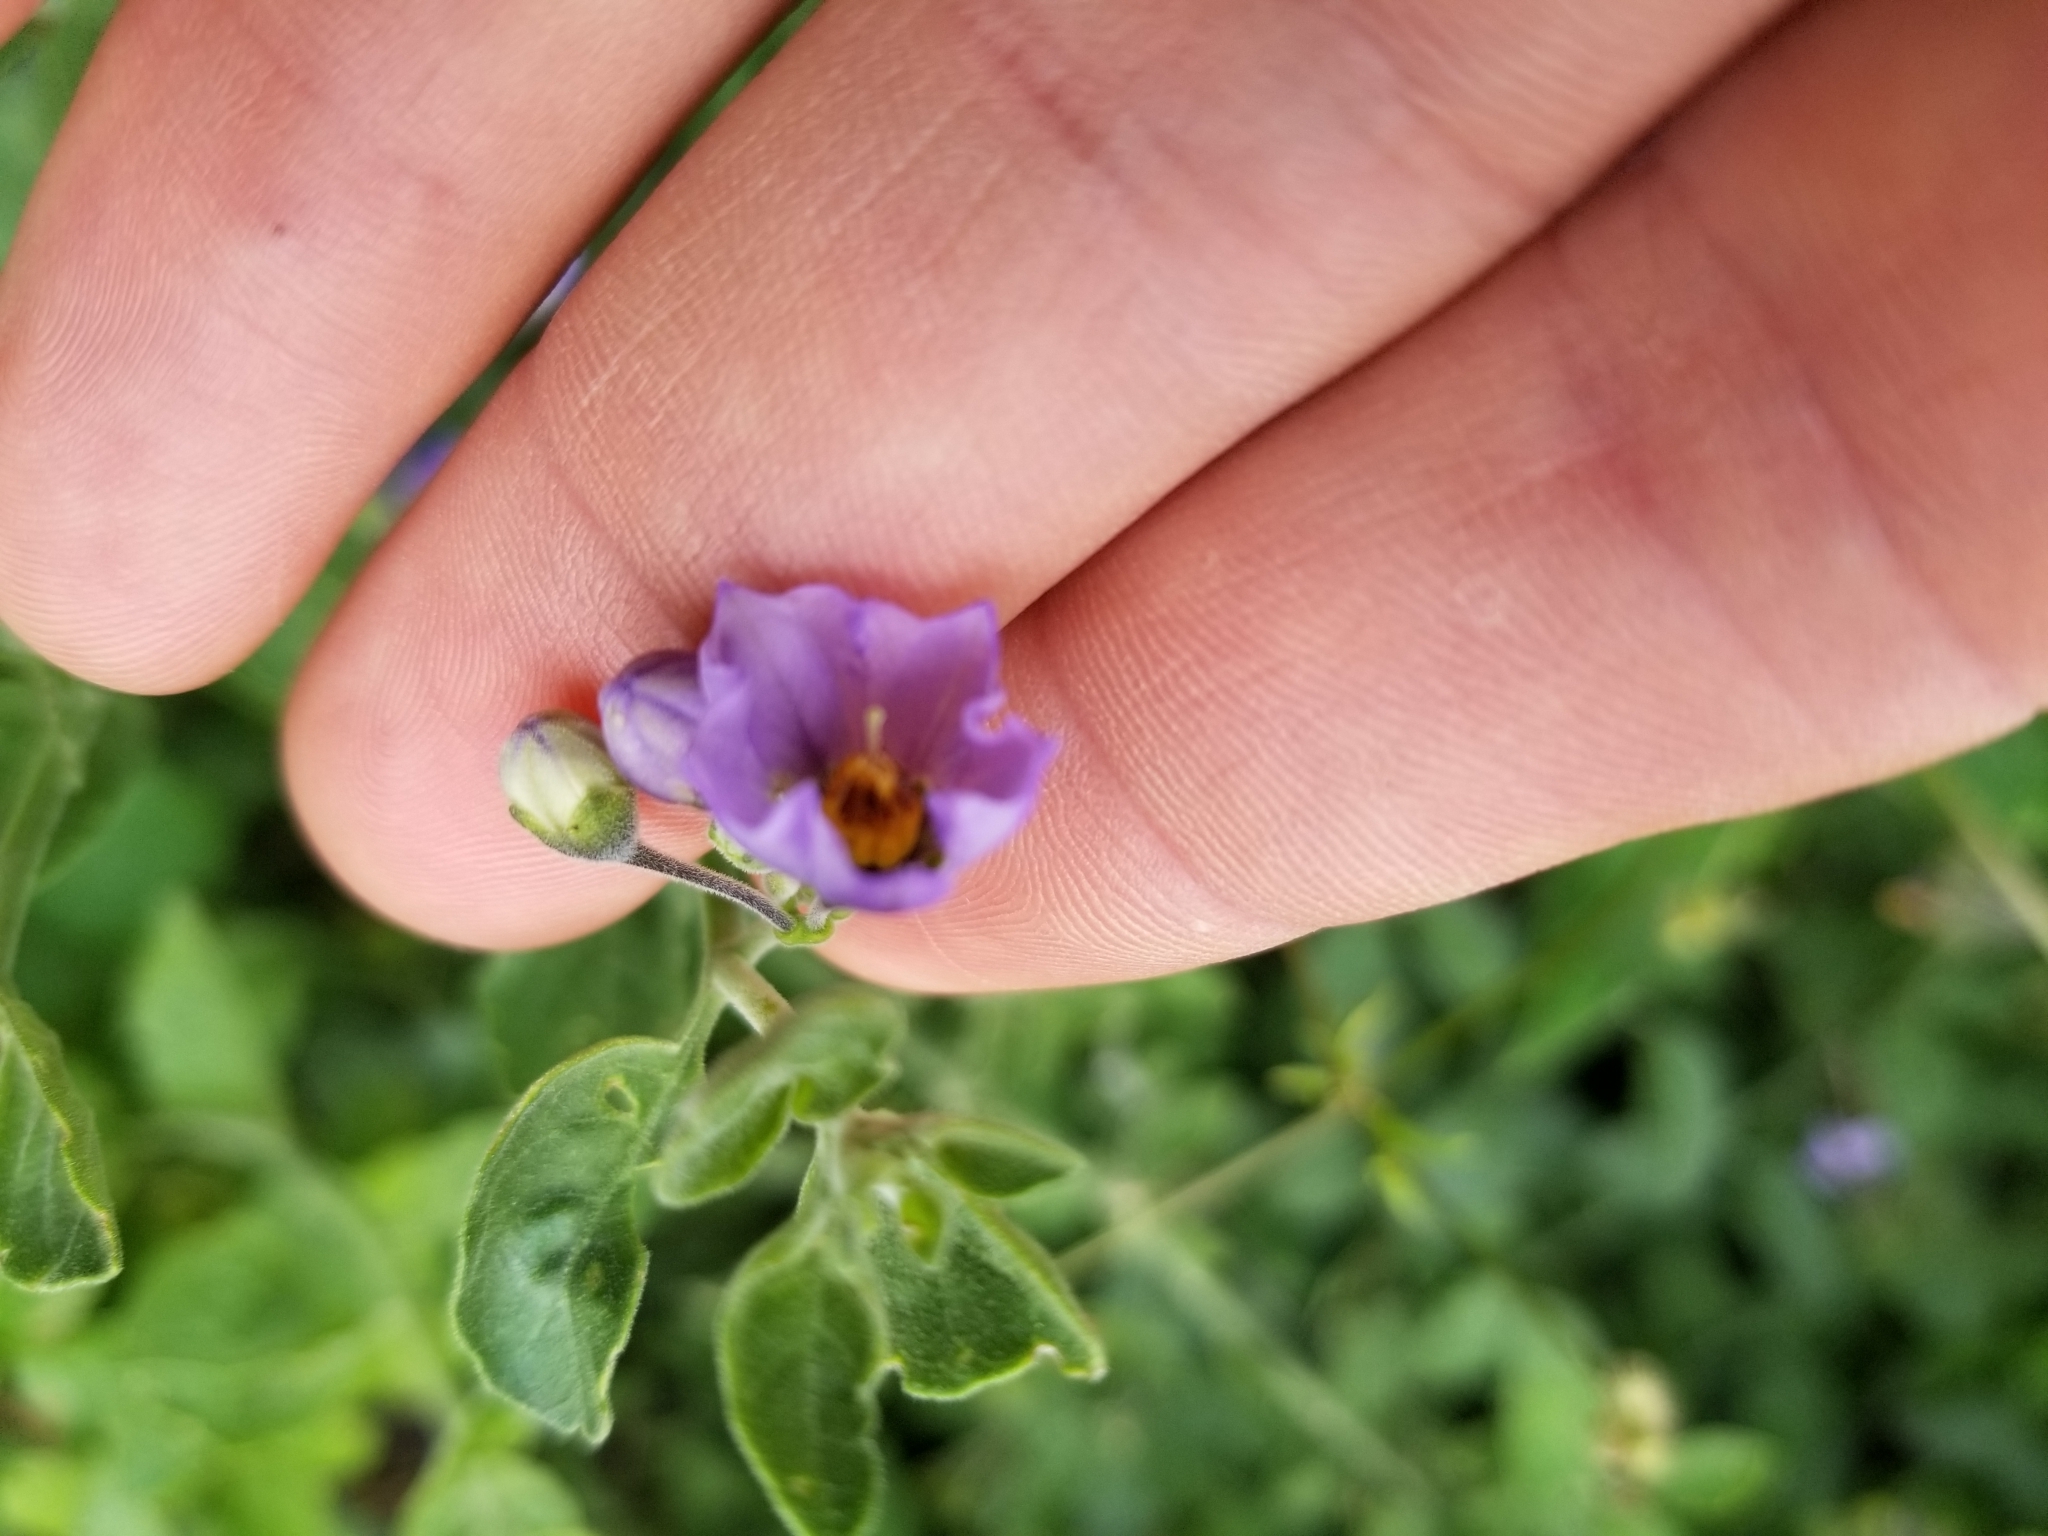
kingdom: Plantae
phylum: Tracheophyta
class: Magnoliopsida
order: Solanales
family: Solanaceae
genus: Solanum
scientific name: Solanum umbelliferum
